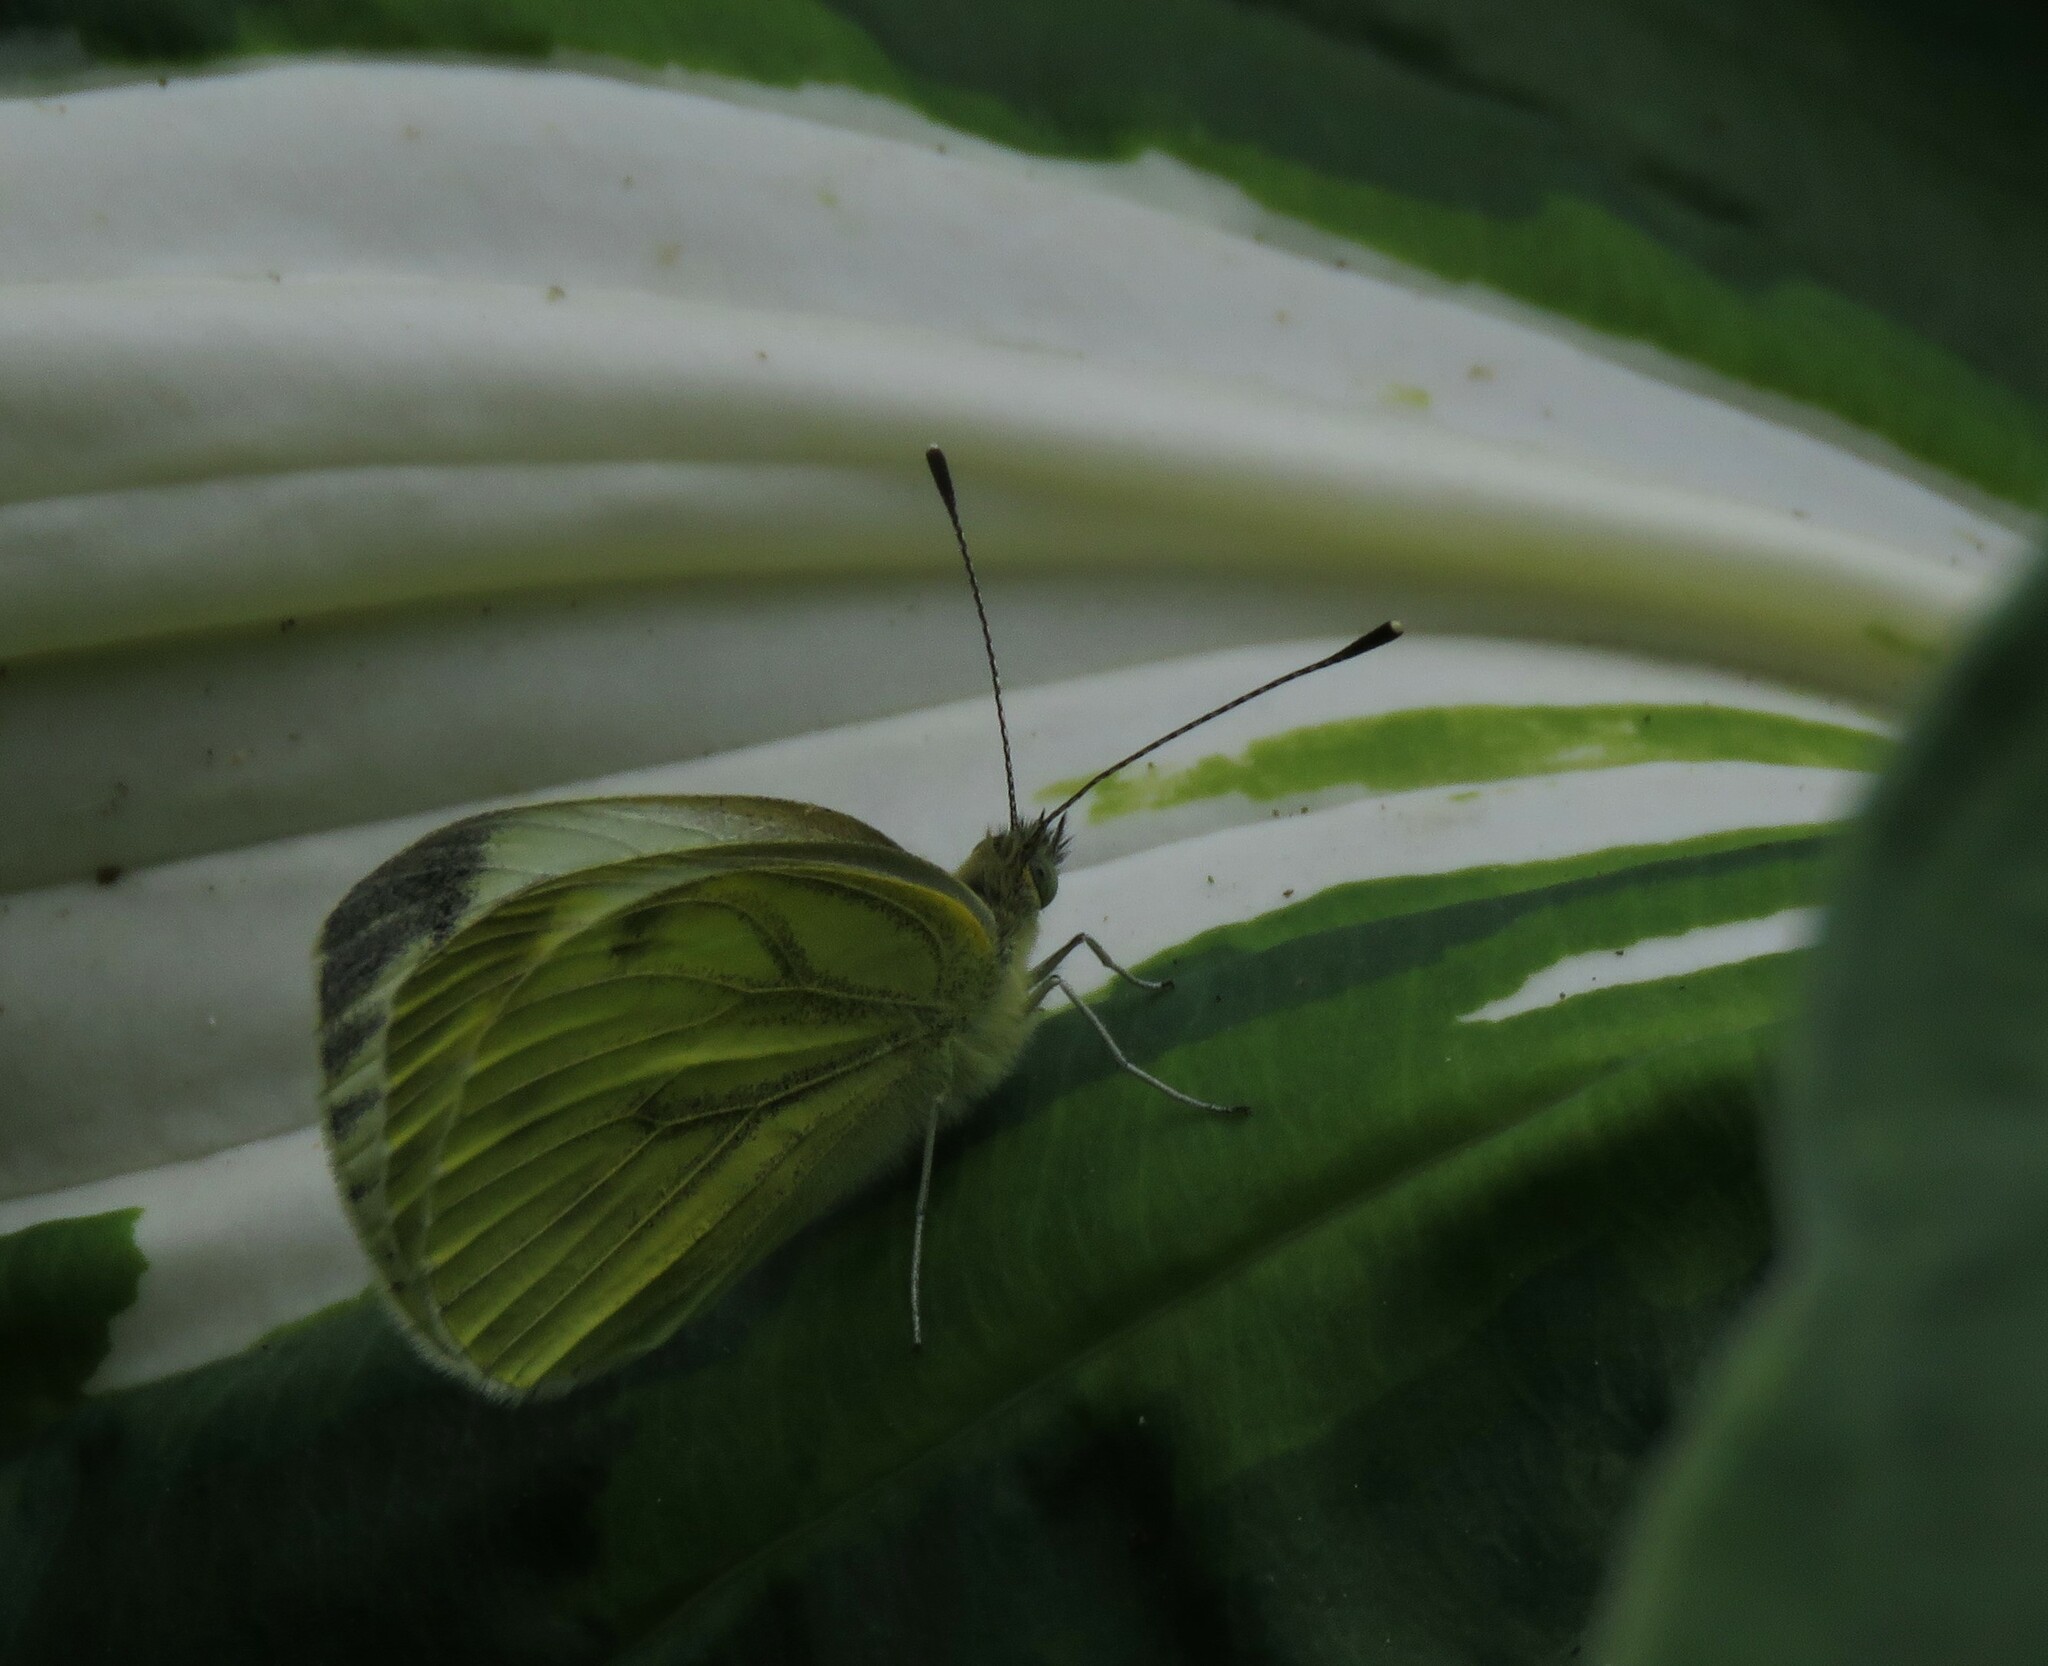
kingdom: Animalia
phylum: Arthropoda
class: Insecta
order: Lepidoptera
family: Pieridae
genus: Pieris
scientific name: Pieris napi
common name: Green-veined white
